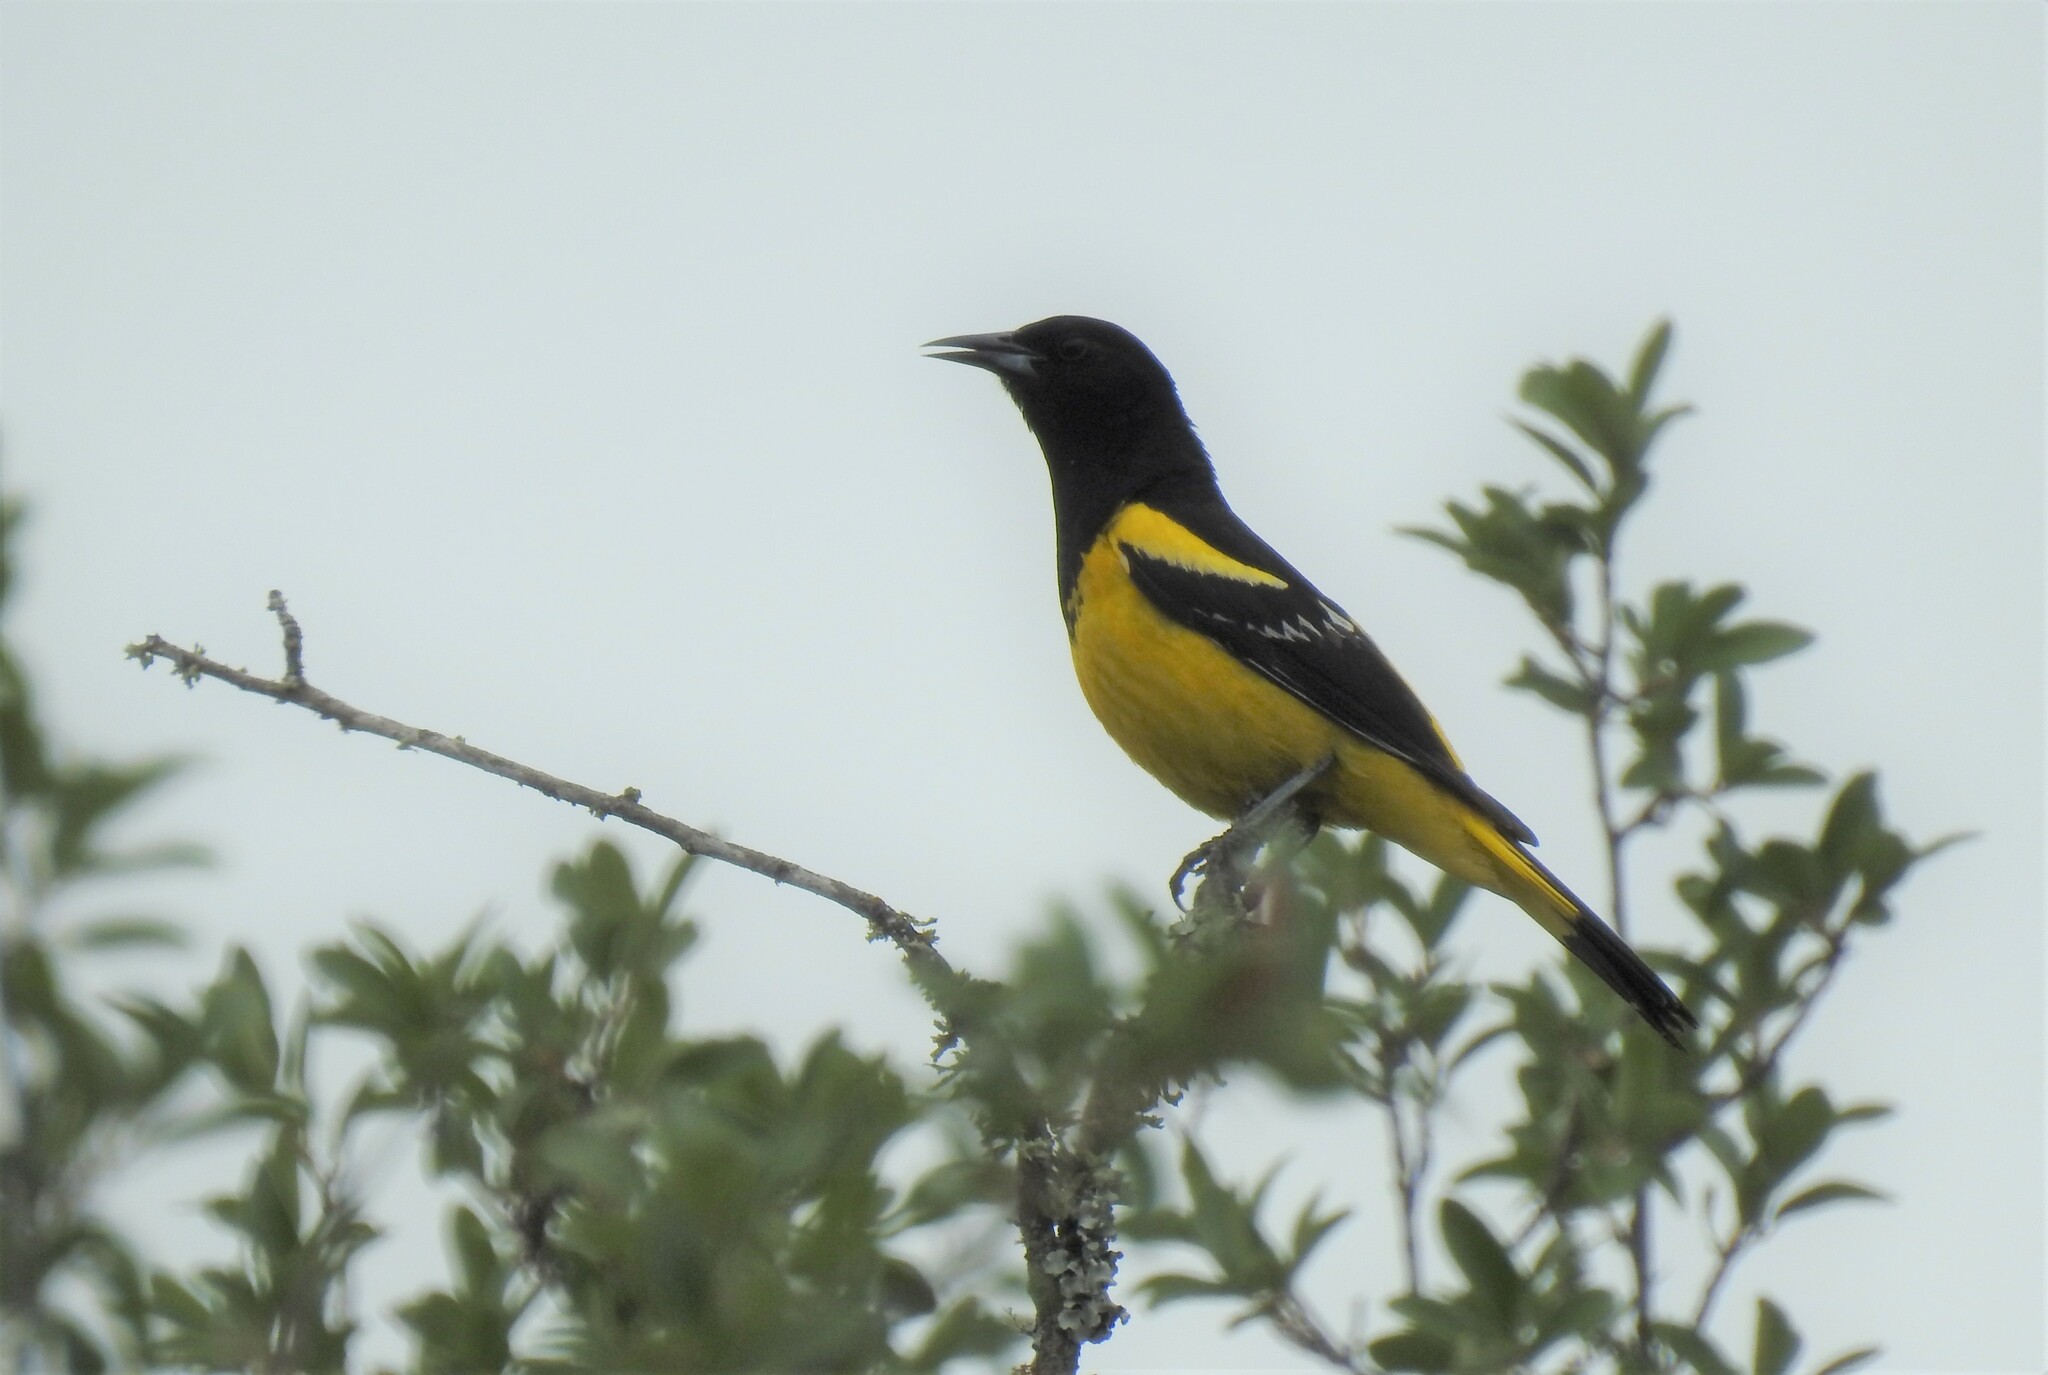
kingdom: Animalia
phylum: Chordata
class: Aves
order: Passeriformes
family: Icteridae
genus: Icterus
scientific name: Icterus parisorum
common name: Scott's oriole
